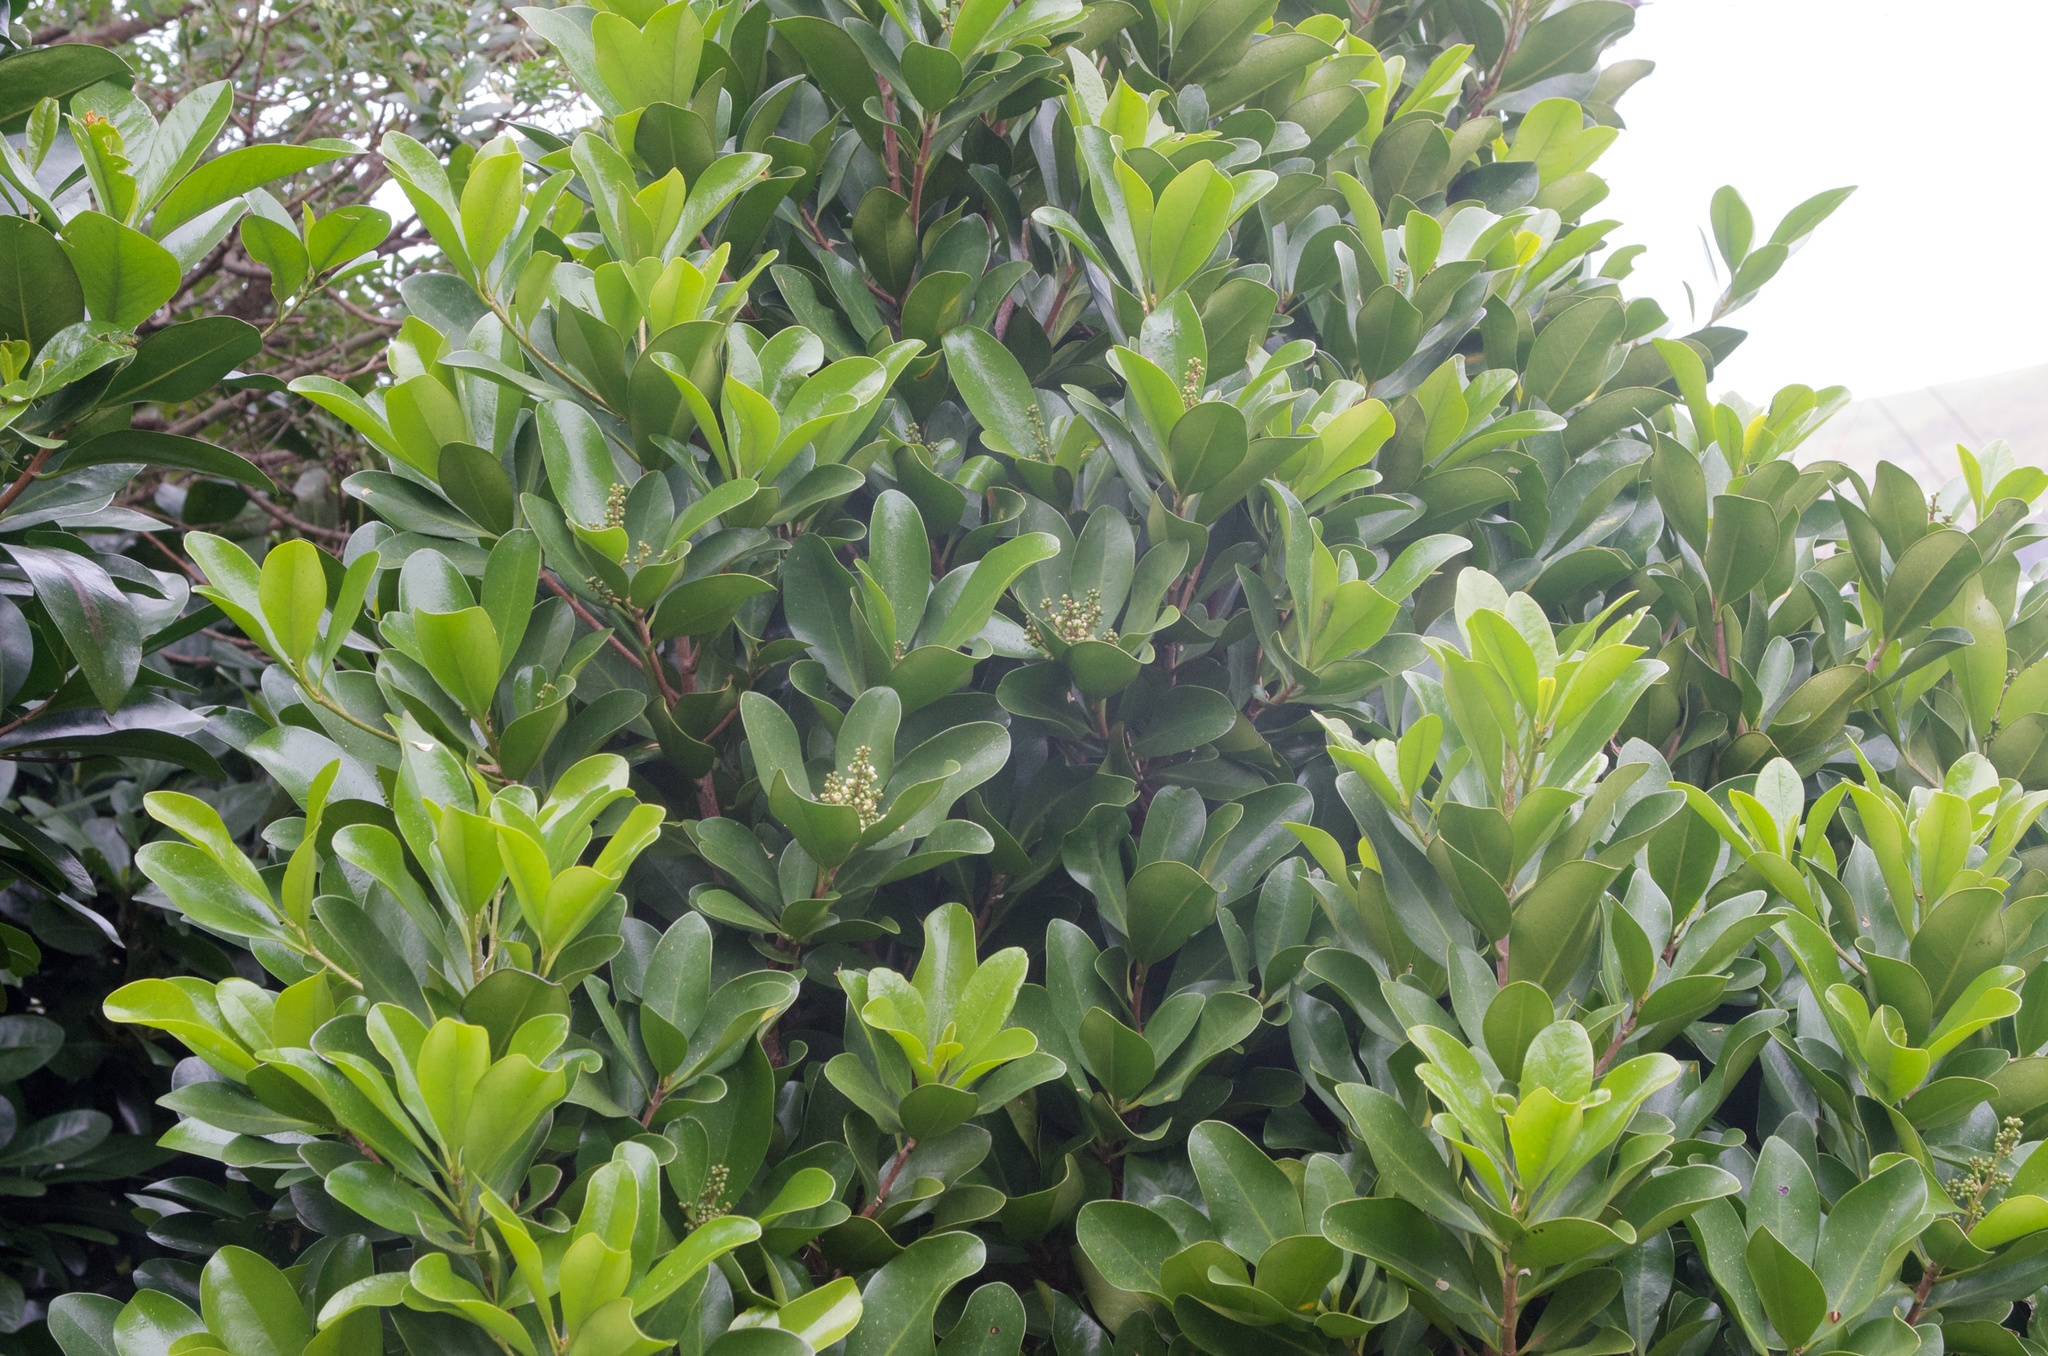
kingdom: Plantae
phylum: Tracheophyta
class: Magnoliopsida
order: Cucurbitales
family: Corynocarpaceae
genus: Corynocarpus
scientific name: Corynocarpus laevigatus
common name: New zealand laurel
